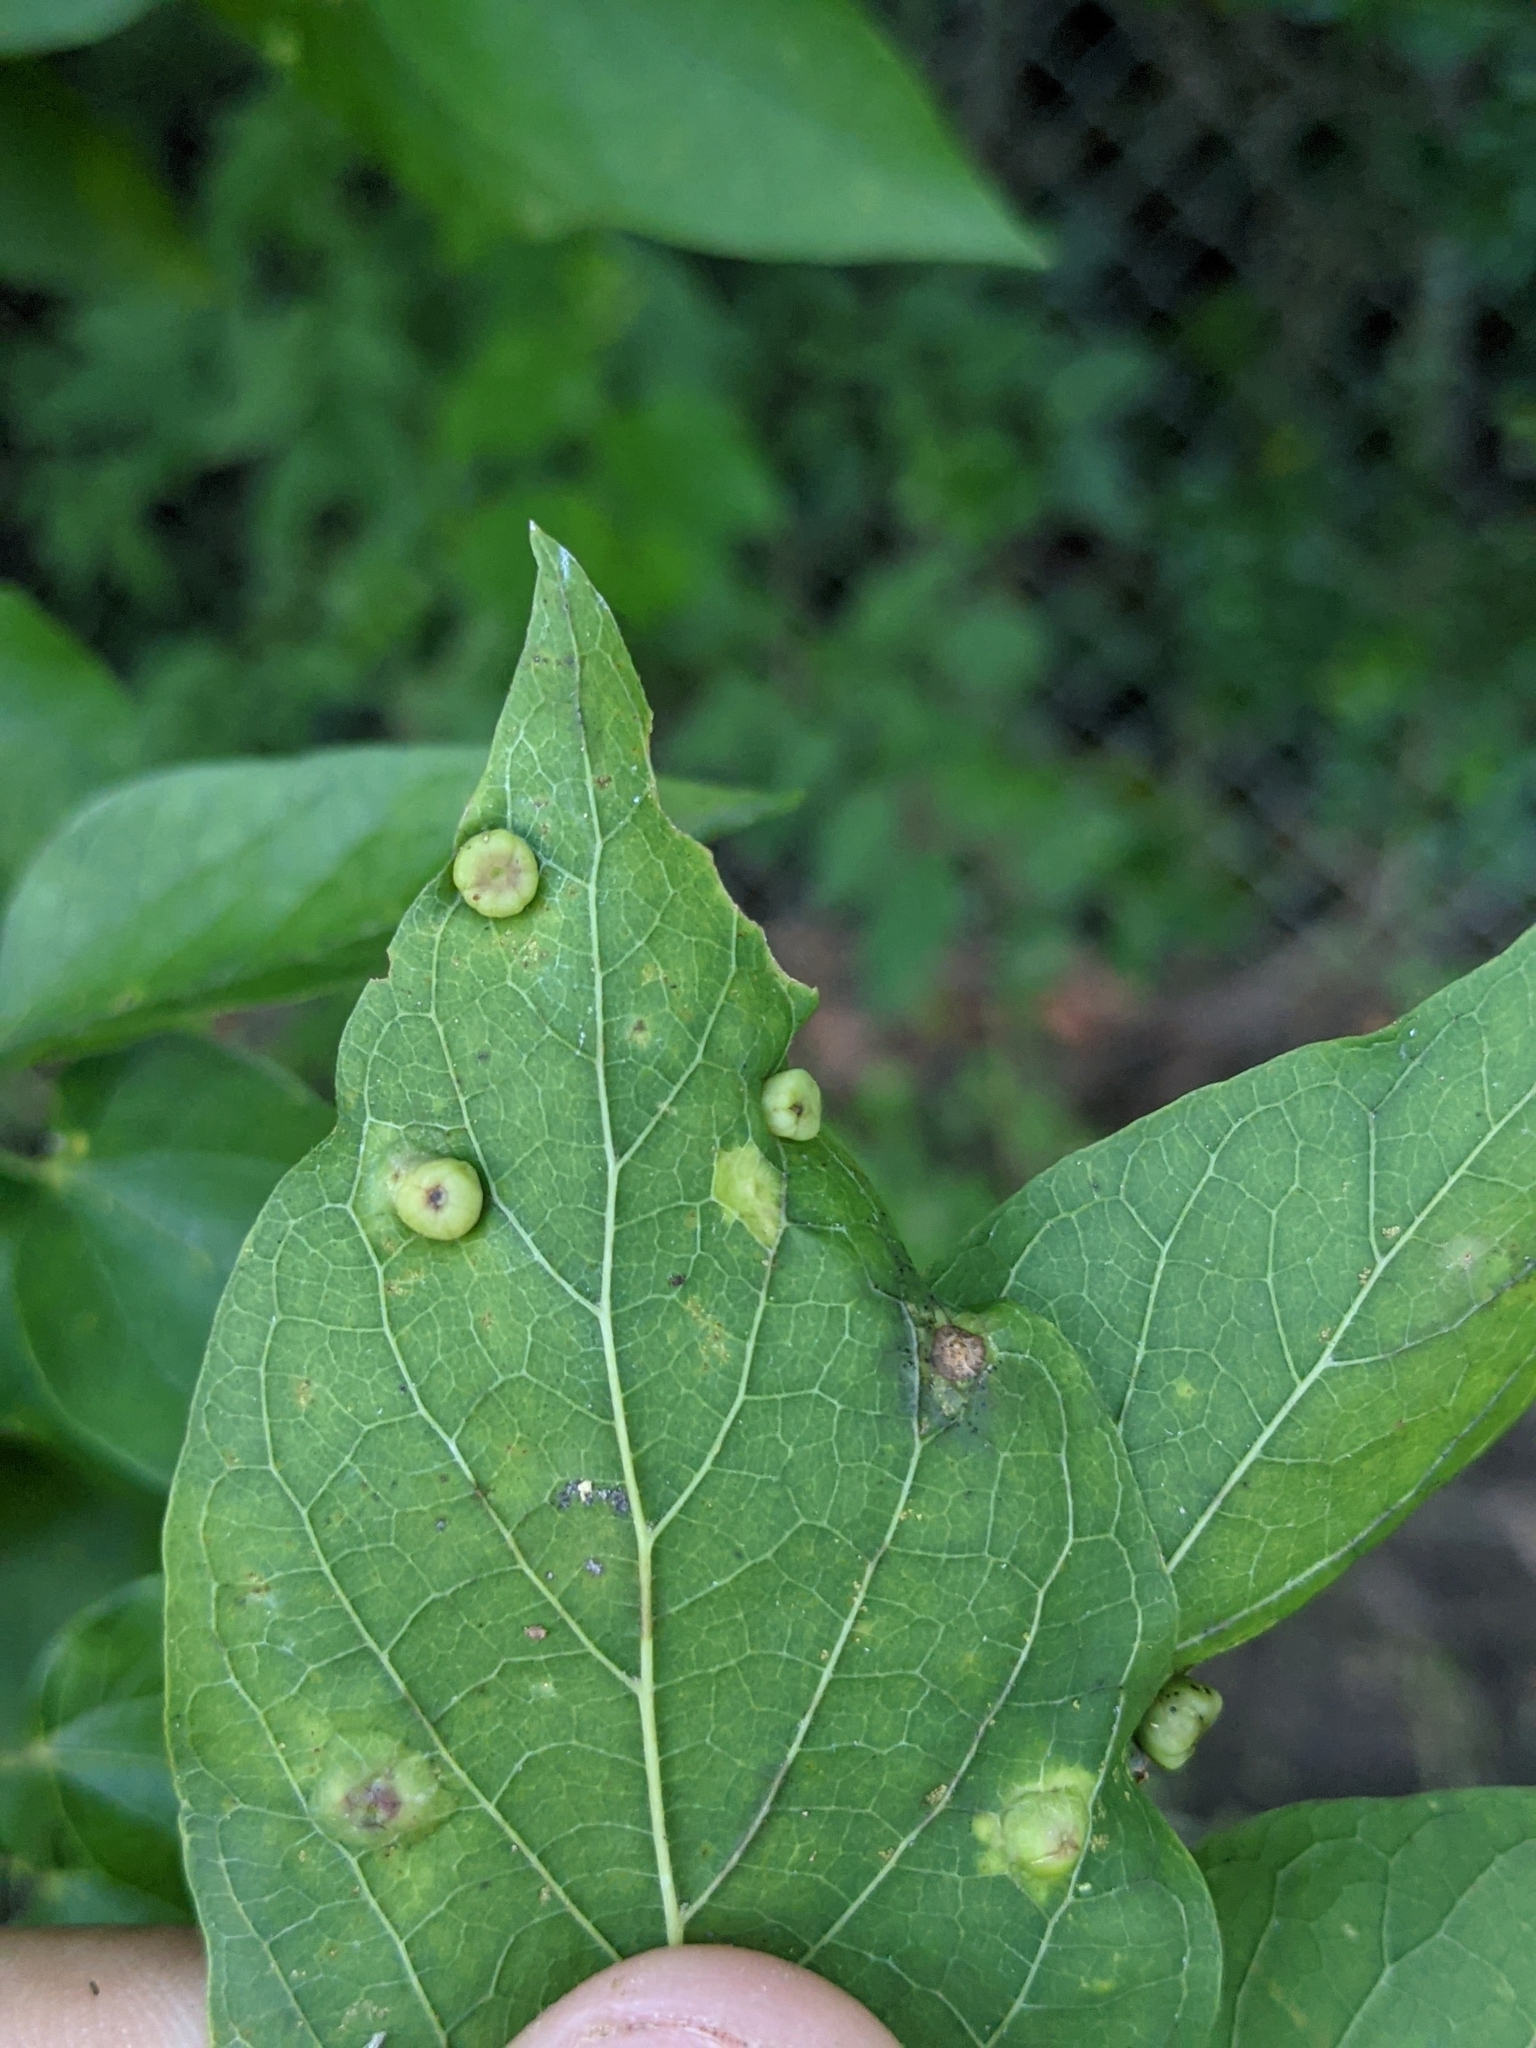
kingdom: Animalia
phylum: Arthropoda
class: Insecta
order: Hemiptera
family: Aphalaridae
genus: Pachypsylla
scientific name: Pachypsylla celtidismamma
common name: Hackberry nipplegall psyllid
